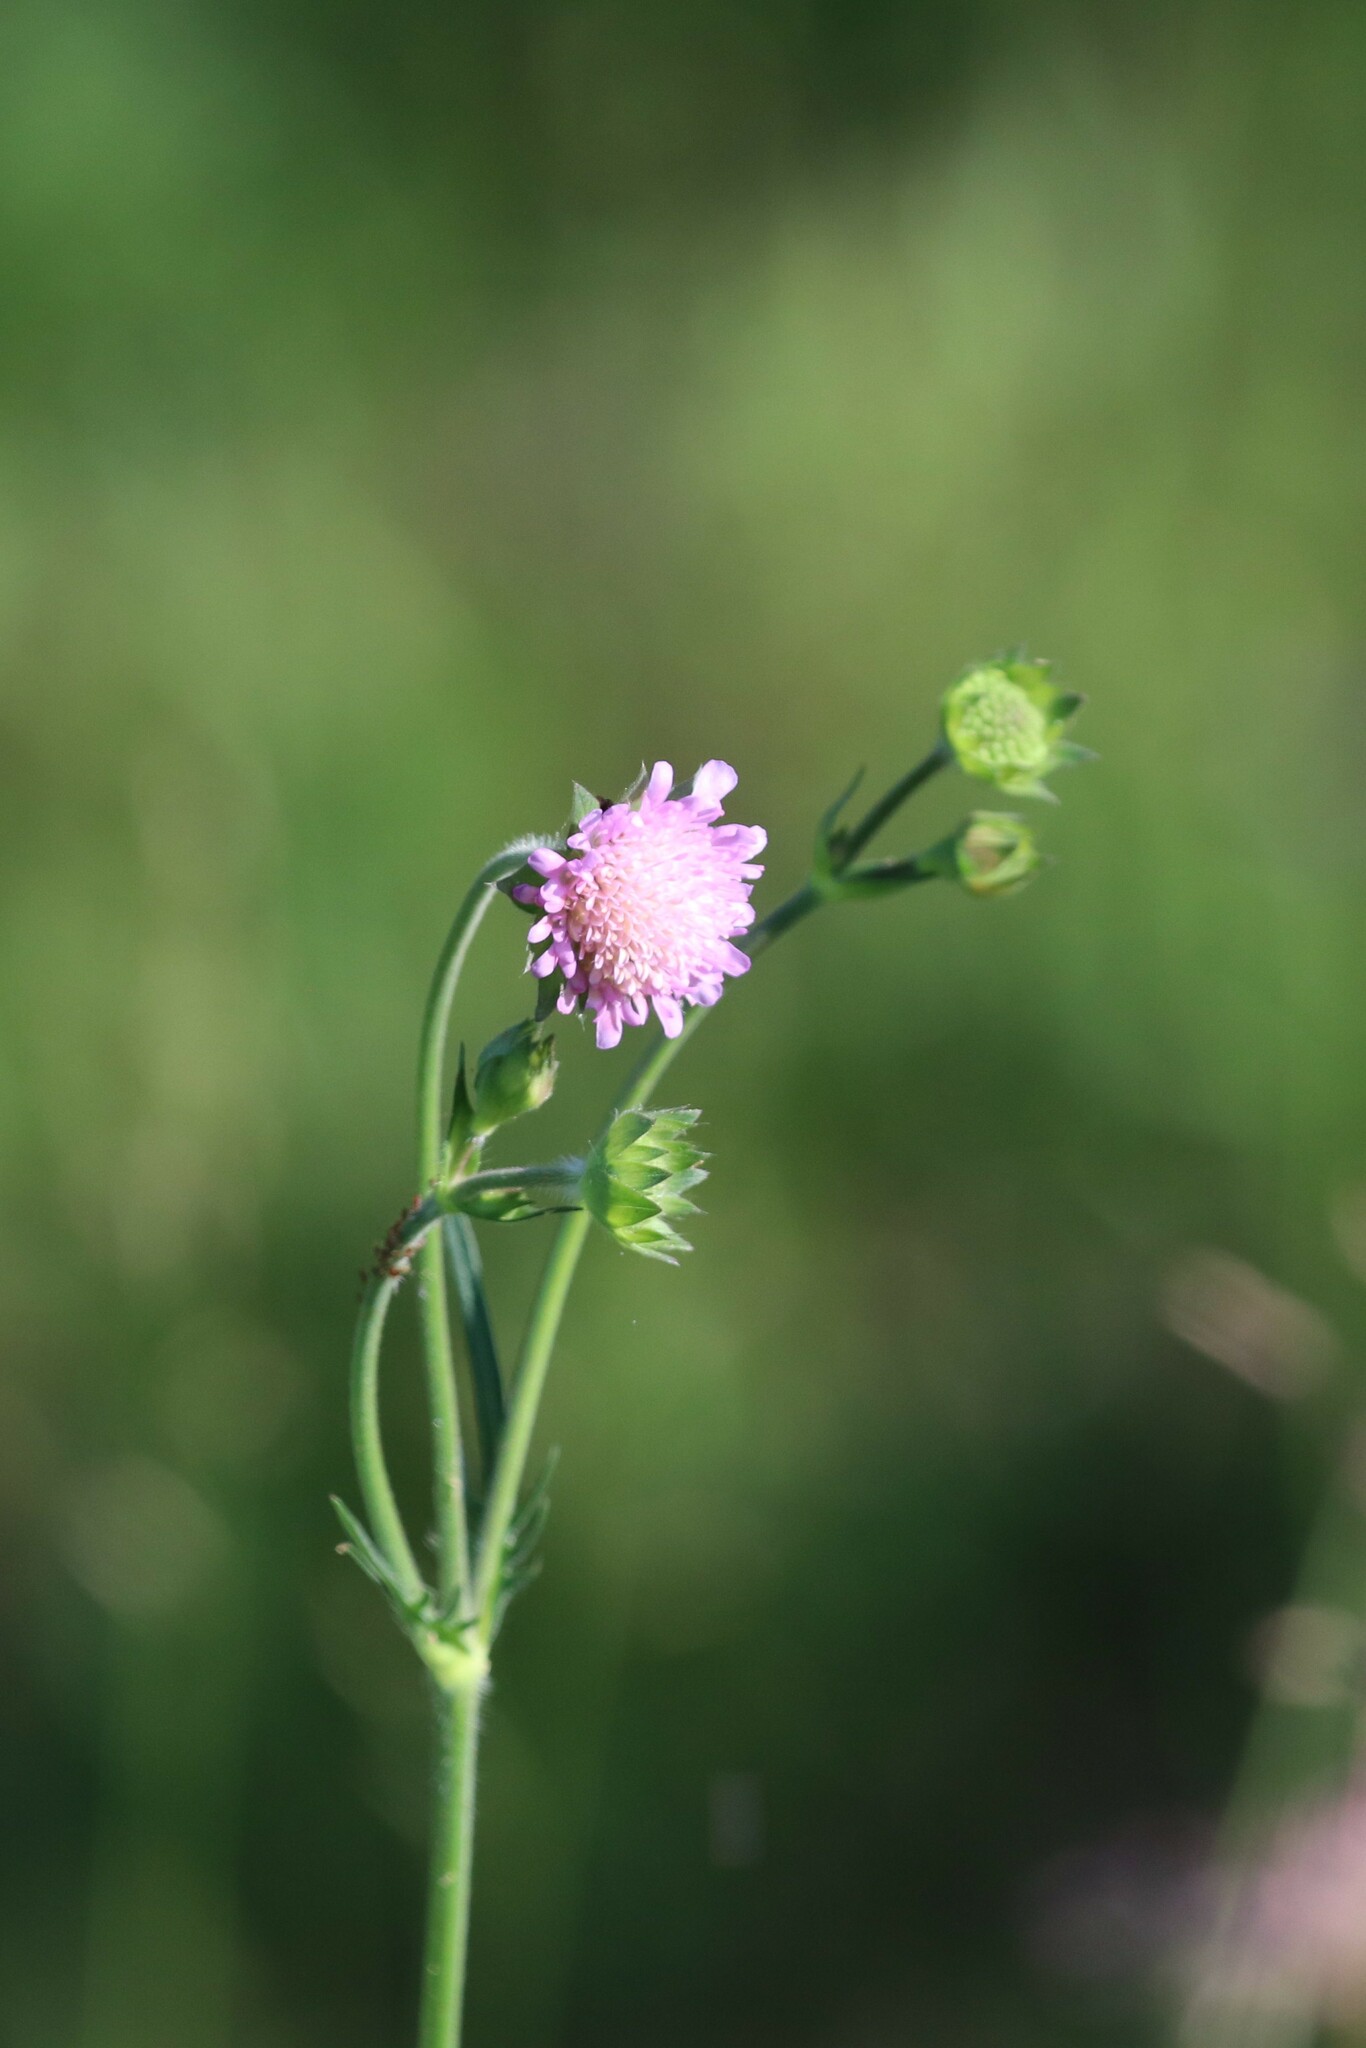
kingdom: Plantae
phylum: Tracheophyta
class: Magnoliopsida
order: Dipsacales
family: Caprifoliaceae
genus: Knautia
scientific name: Knautia arvensis
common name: Field scabiosa
